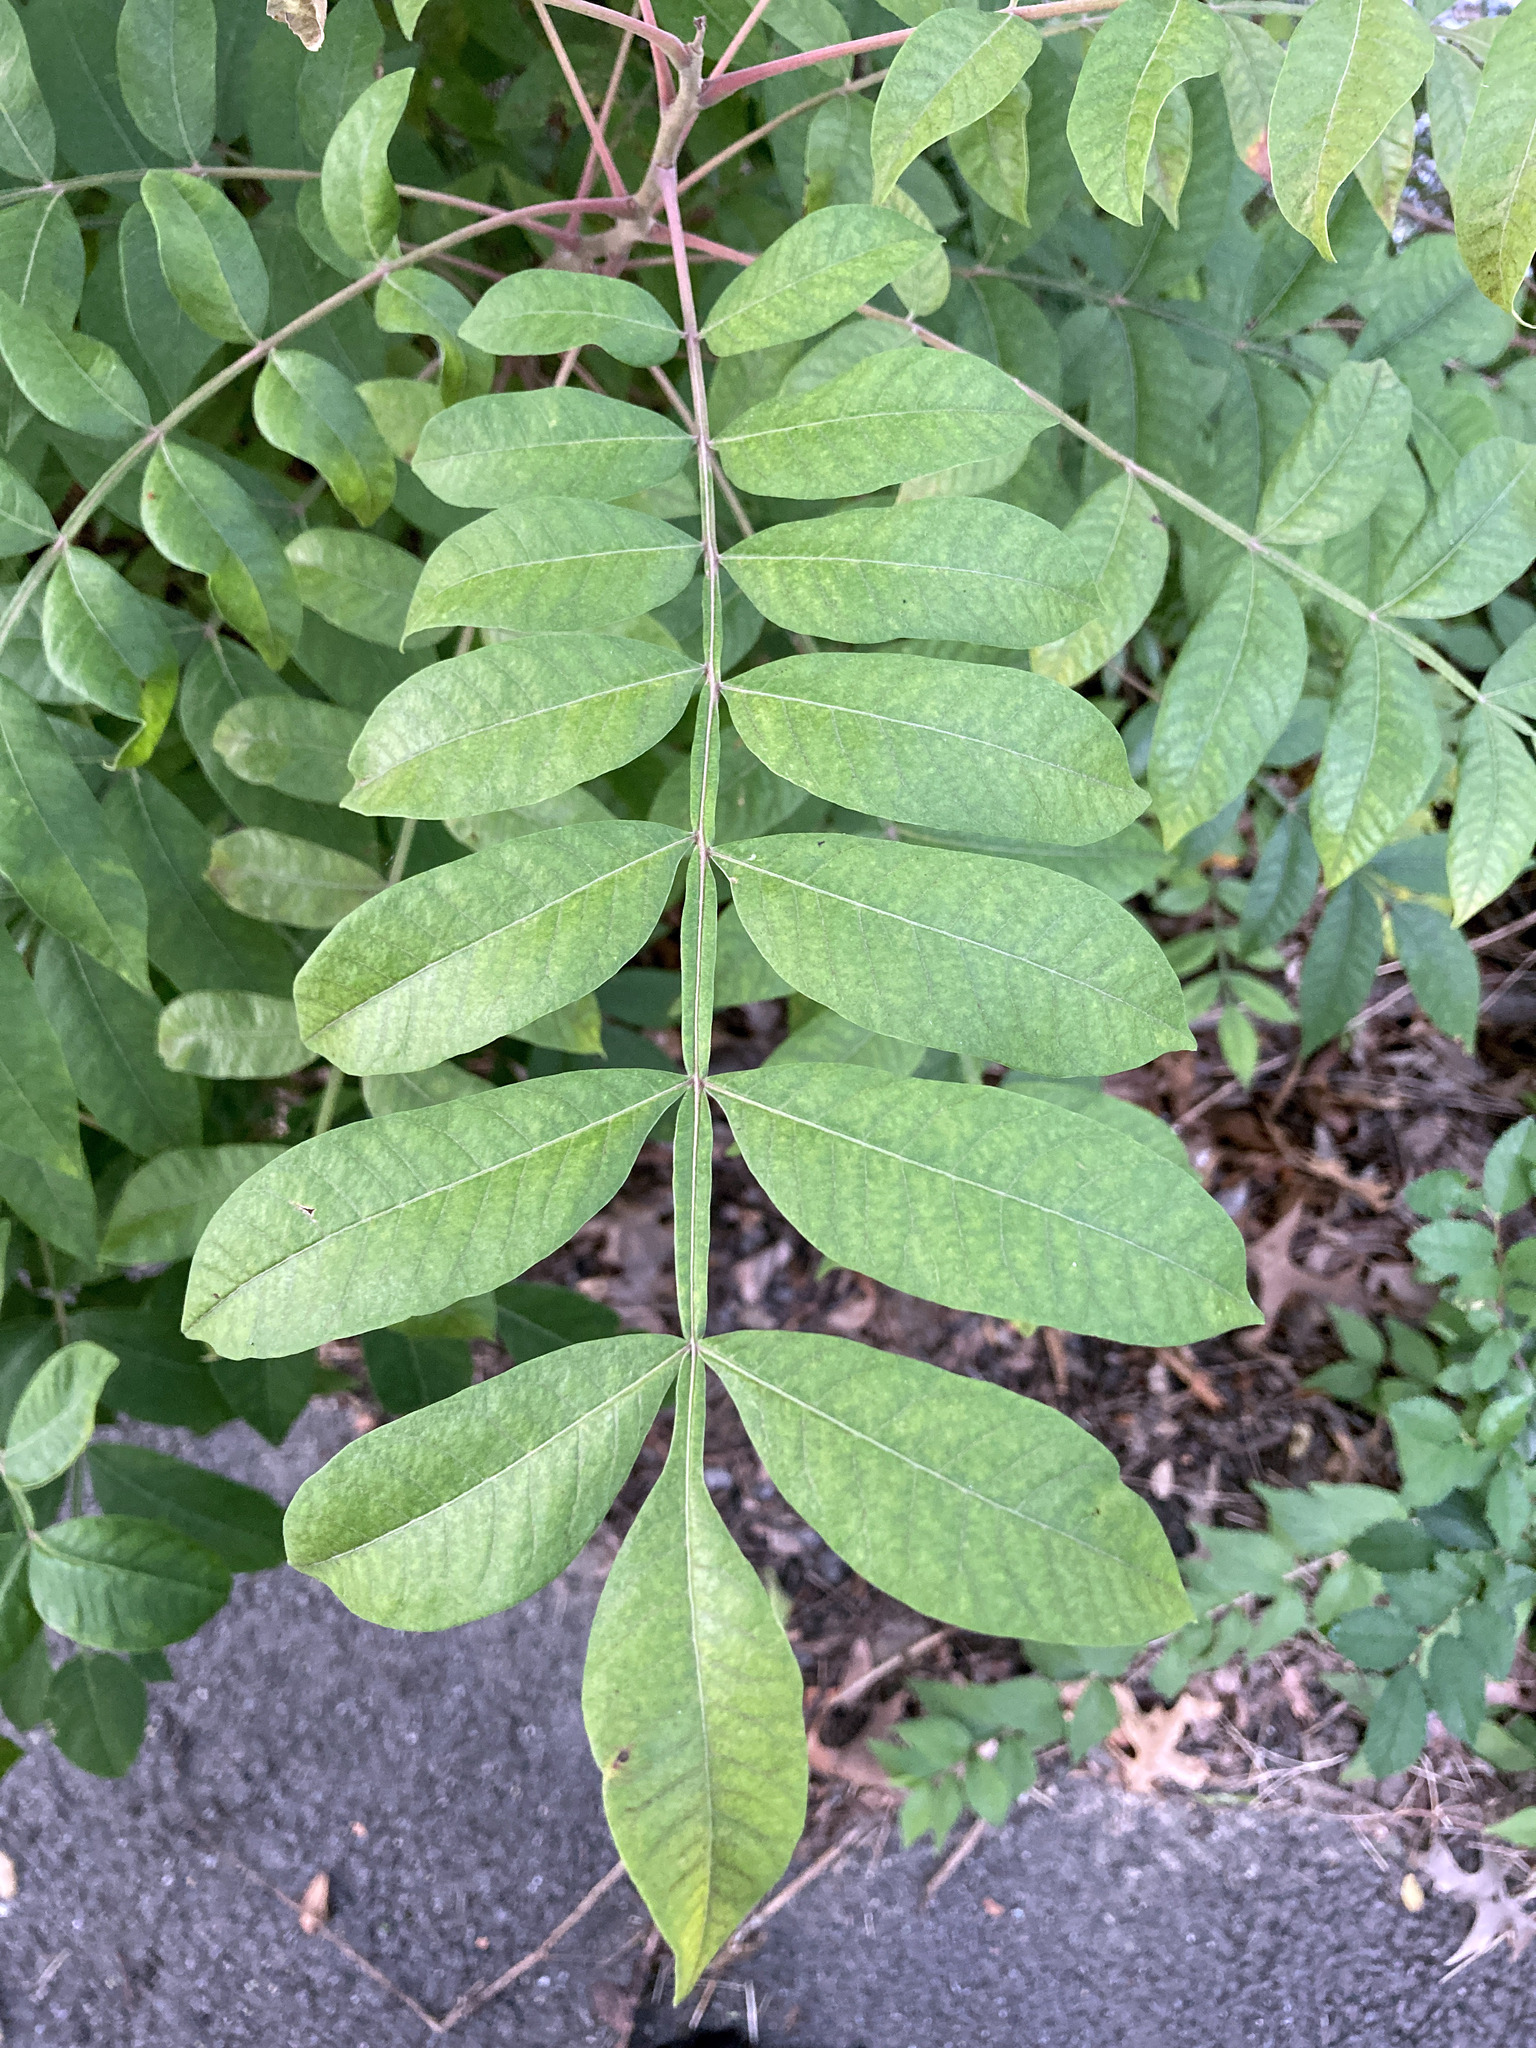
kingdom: Plantae
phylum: Tracheophyta
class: Magnoliopsida
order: Sapindales
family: Anacardiaceae
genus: Rhus
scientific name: Rhus copallina
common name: Shining sumac
